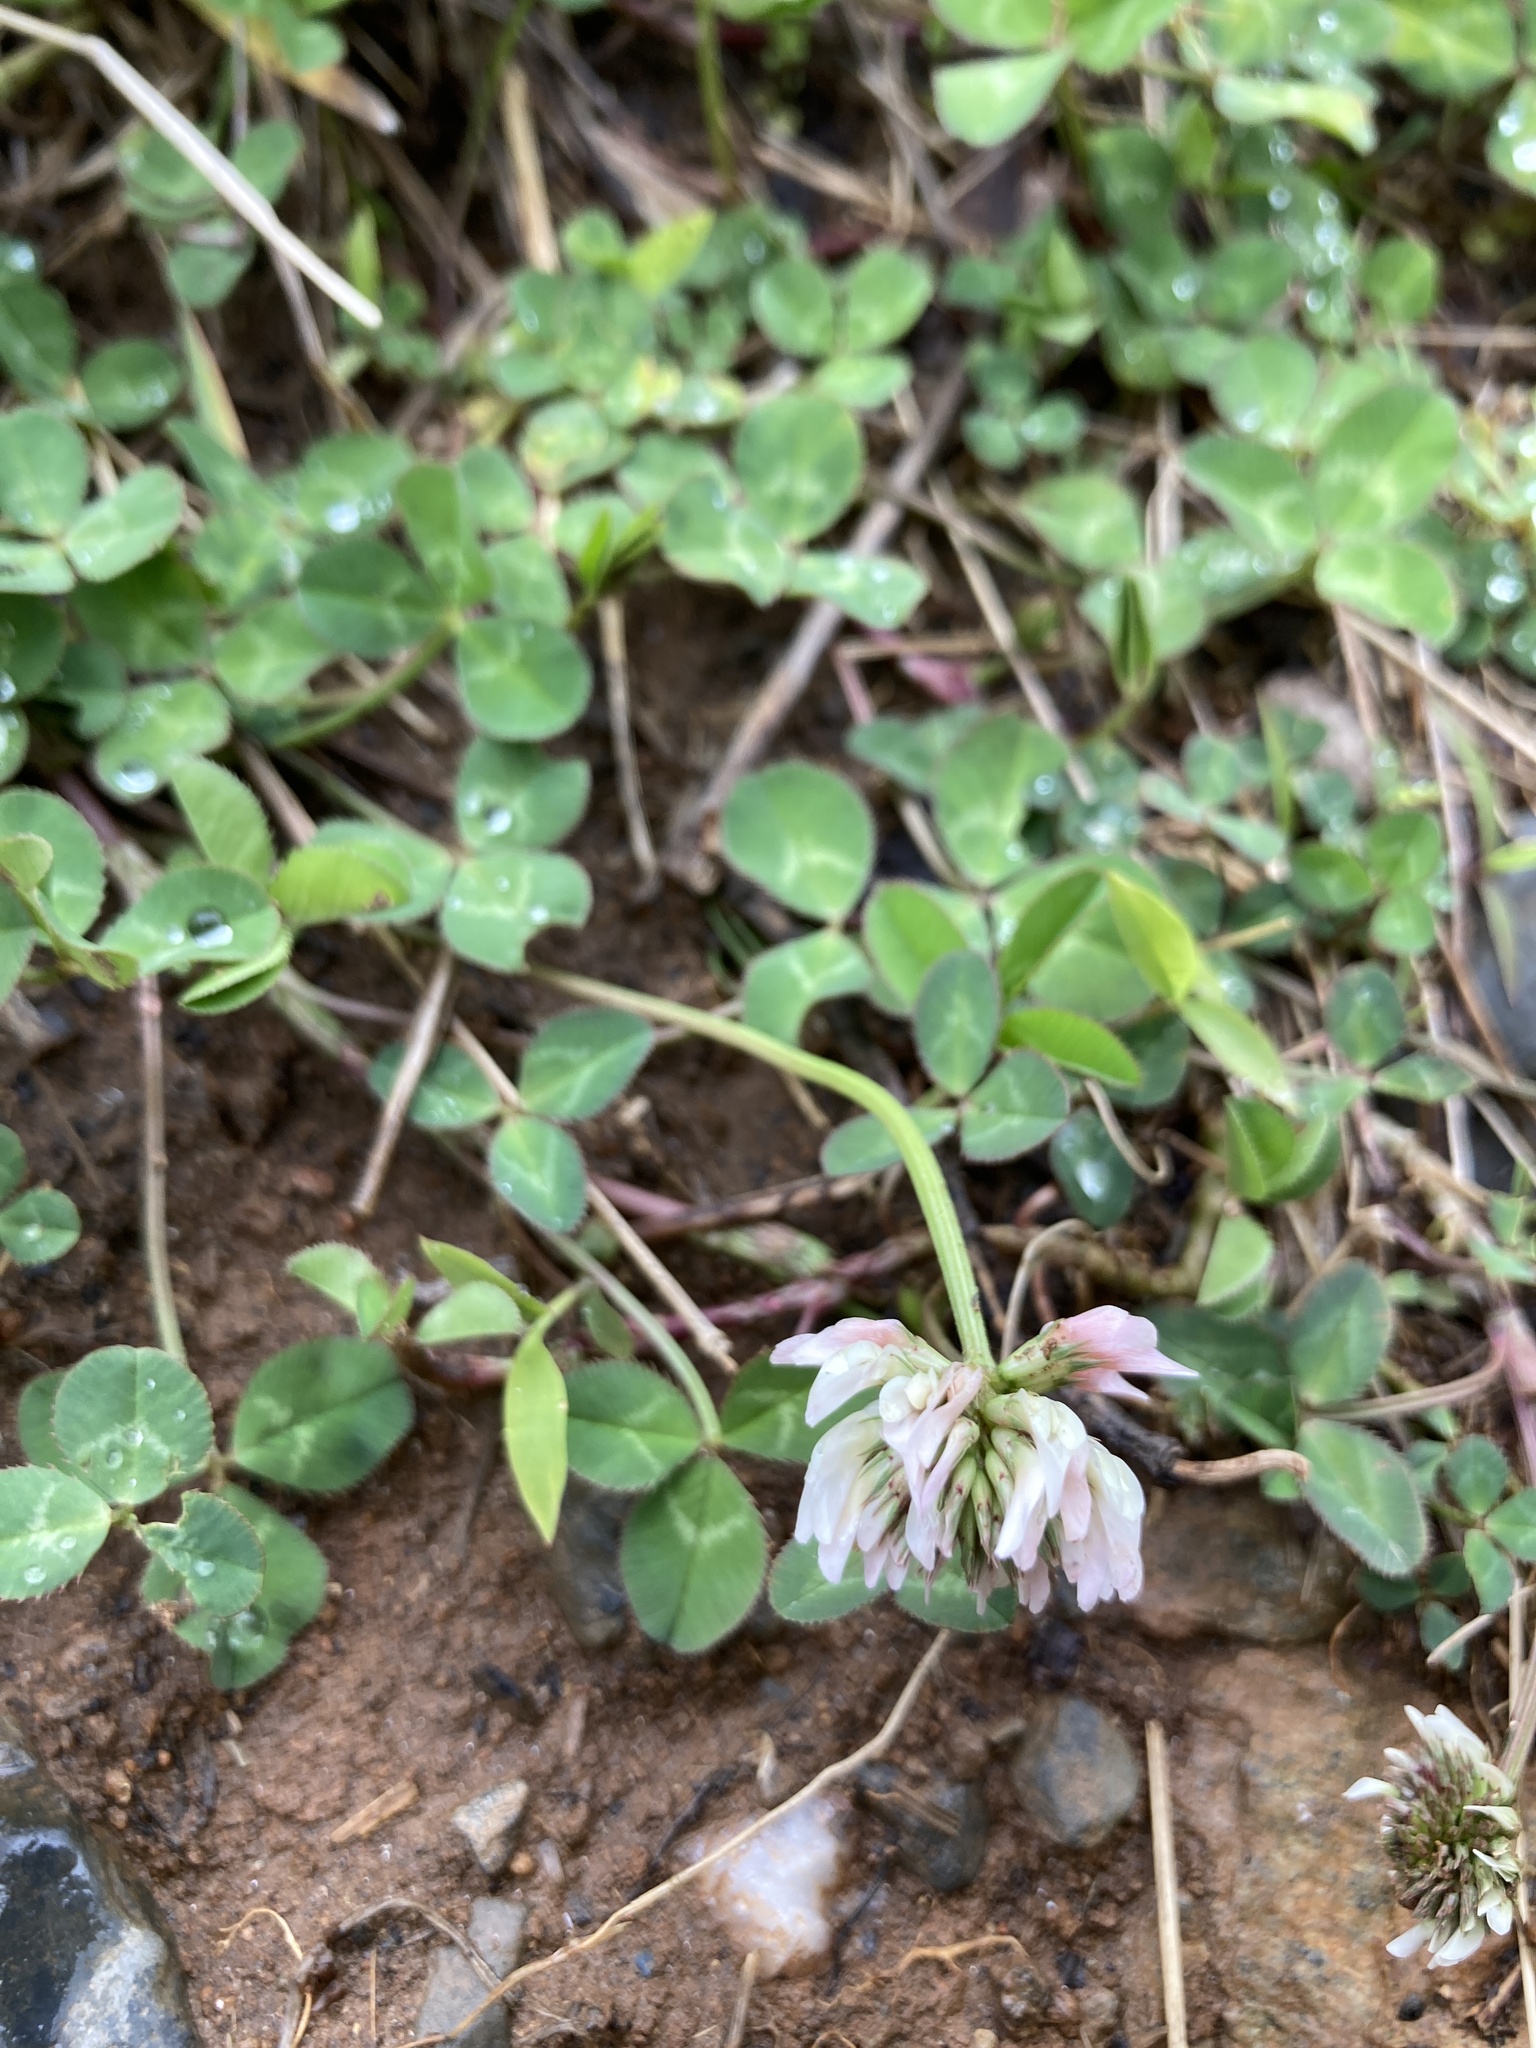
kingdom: Plantae
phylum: Tracheophyta
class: Magnoliopsida
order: Fabales
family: Fabaceae
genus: Trifolium
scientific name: Trifolium repens
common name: White clover
